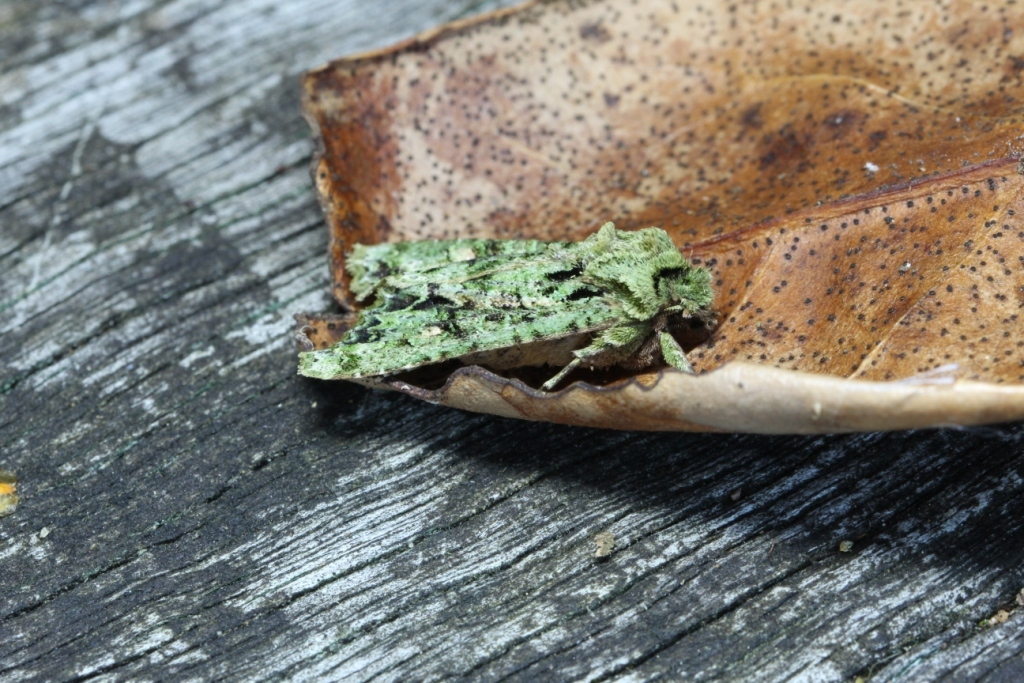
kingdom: Animalia
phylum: Arthropoda
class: Insecta
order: Lepidoptera
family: Noctuidae
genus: Ichneutica
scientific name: Ichneutica
